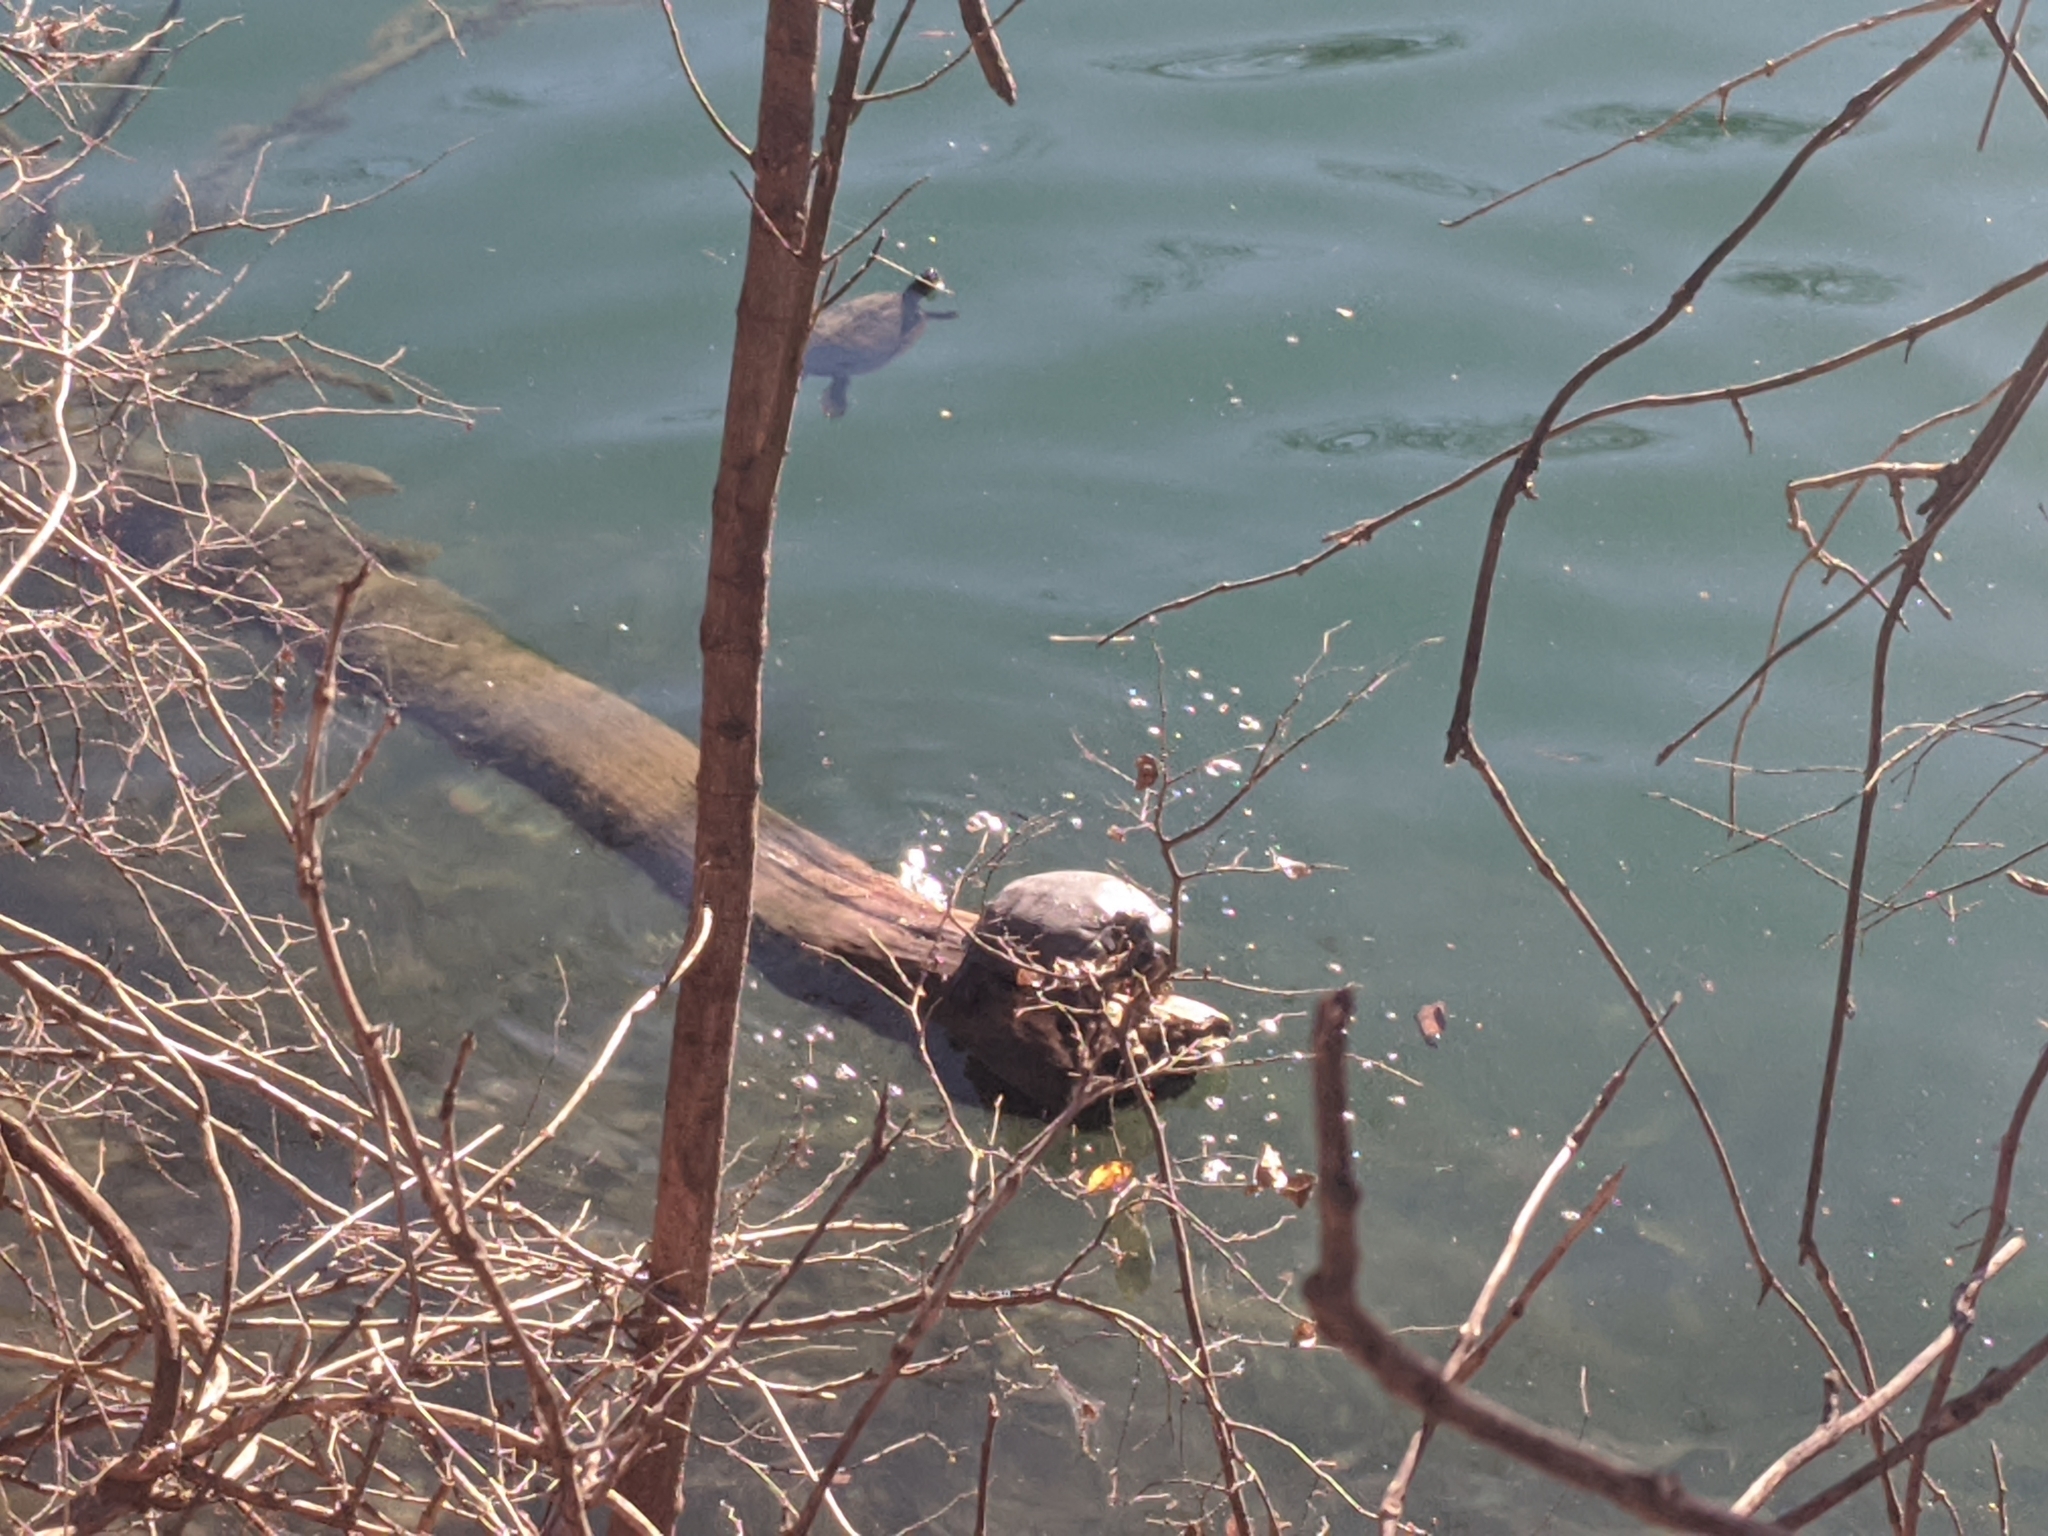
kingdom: Animalia
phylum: Chordata
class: Testudines
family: Emydidae
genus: Trachemys
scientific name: Trachemys scripta
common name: Slider
